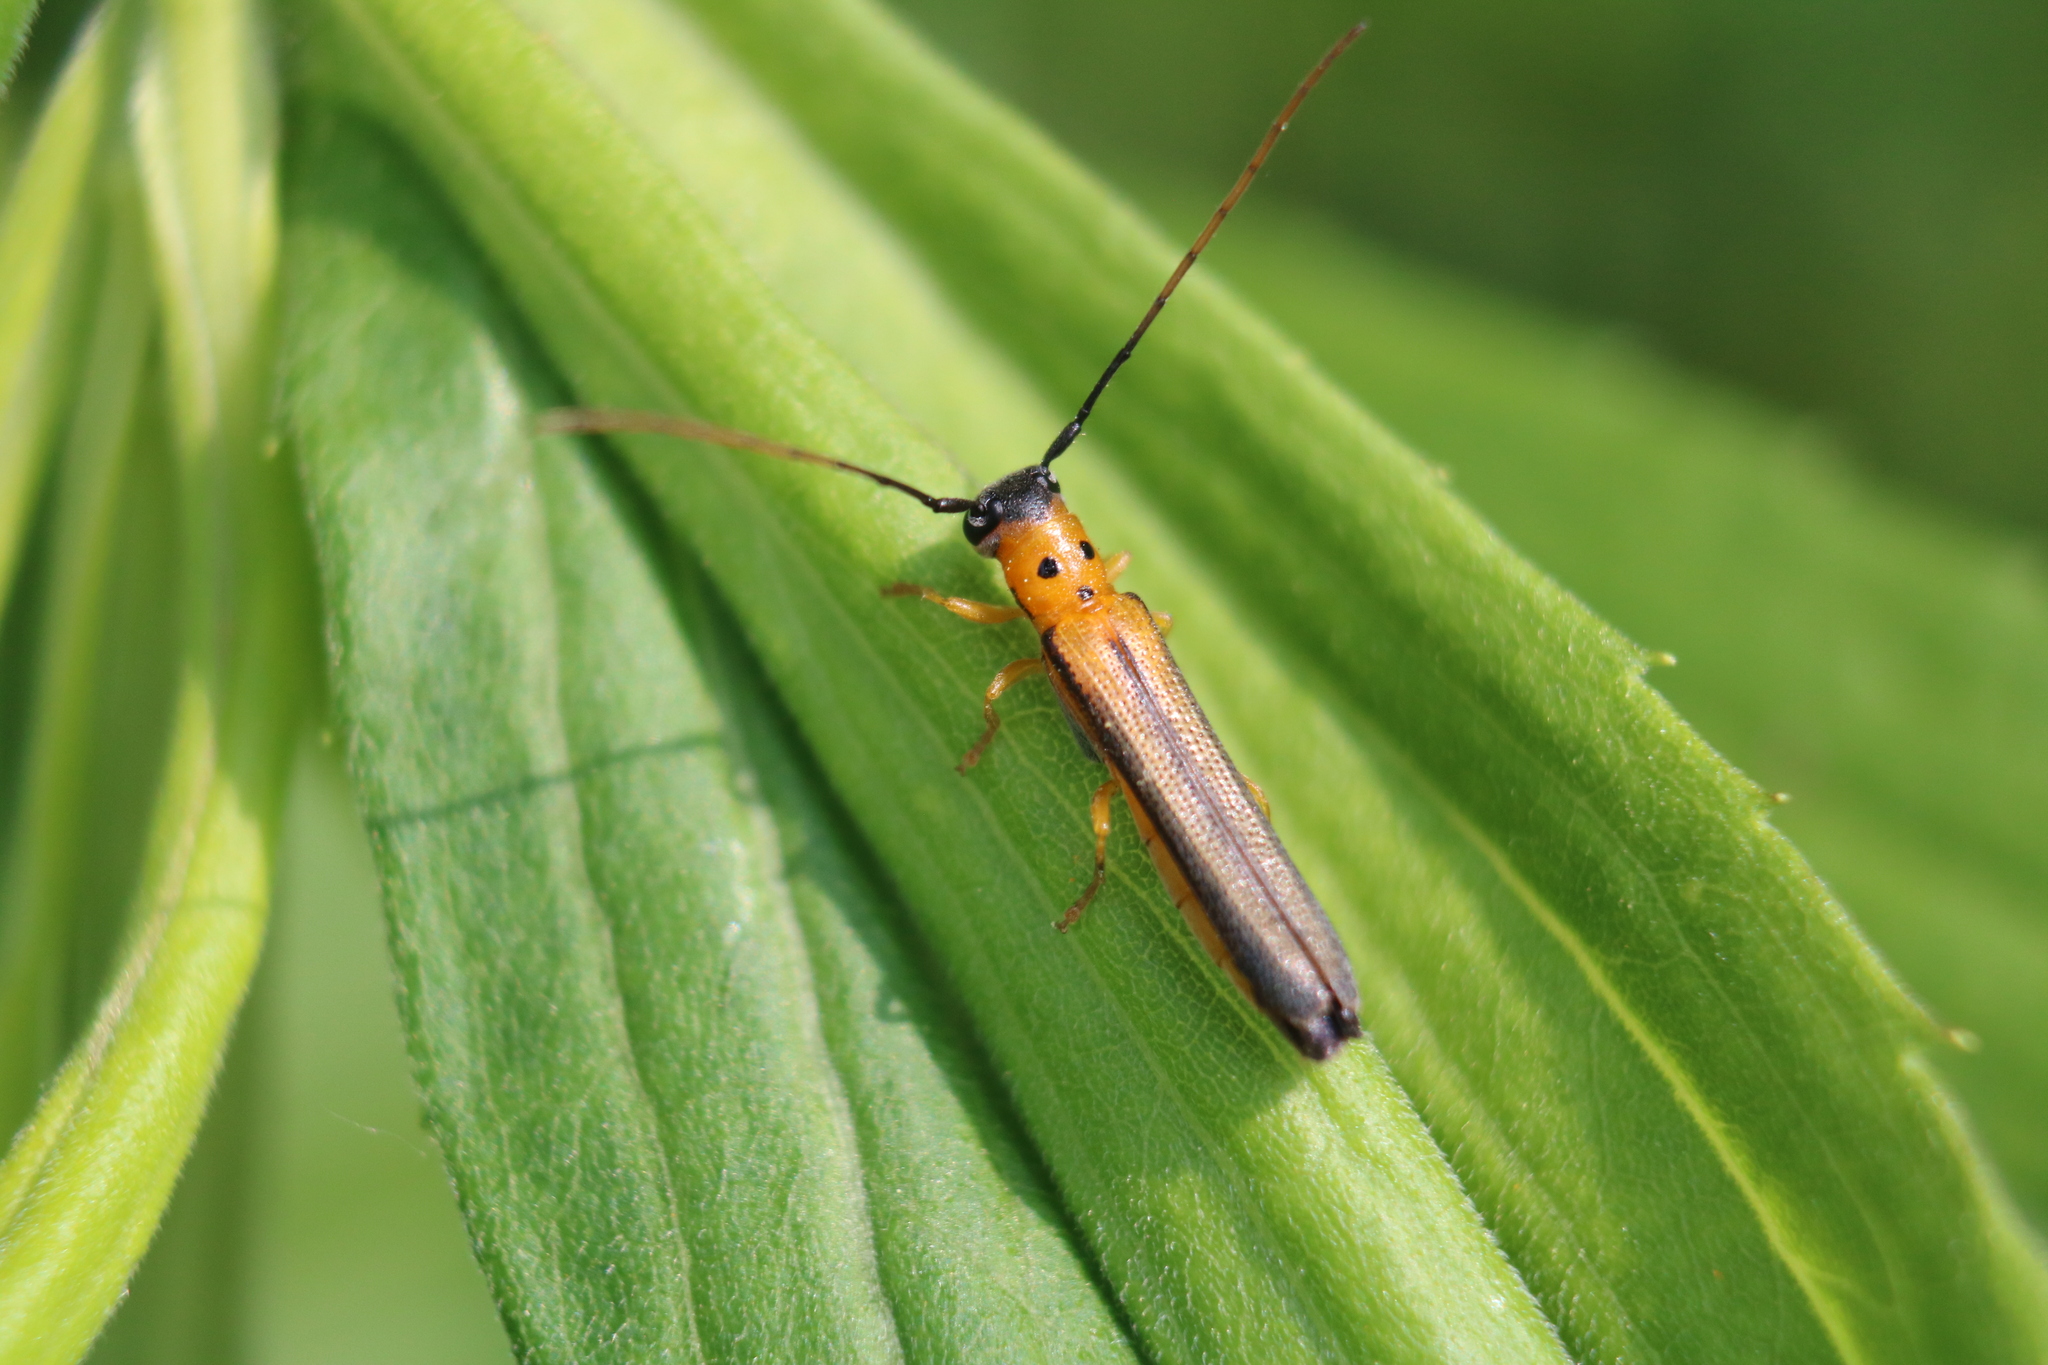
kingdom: Animalia
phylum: Arthropoda
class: Insecta
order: Coleoptera
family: Cerambycidae
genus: Oberea
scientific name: Oberea praelonga
